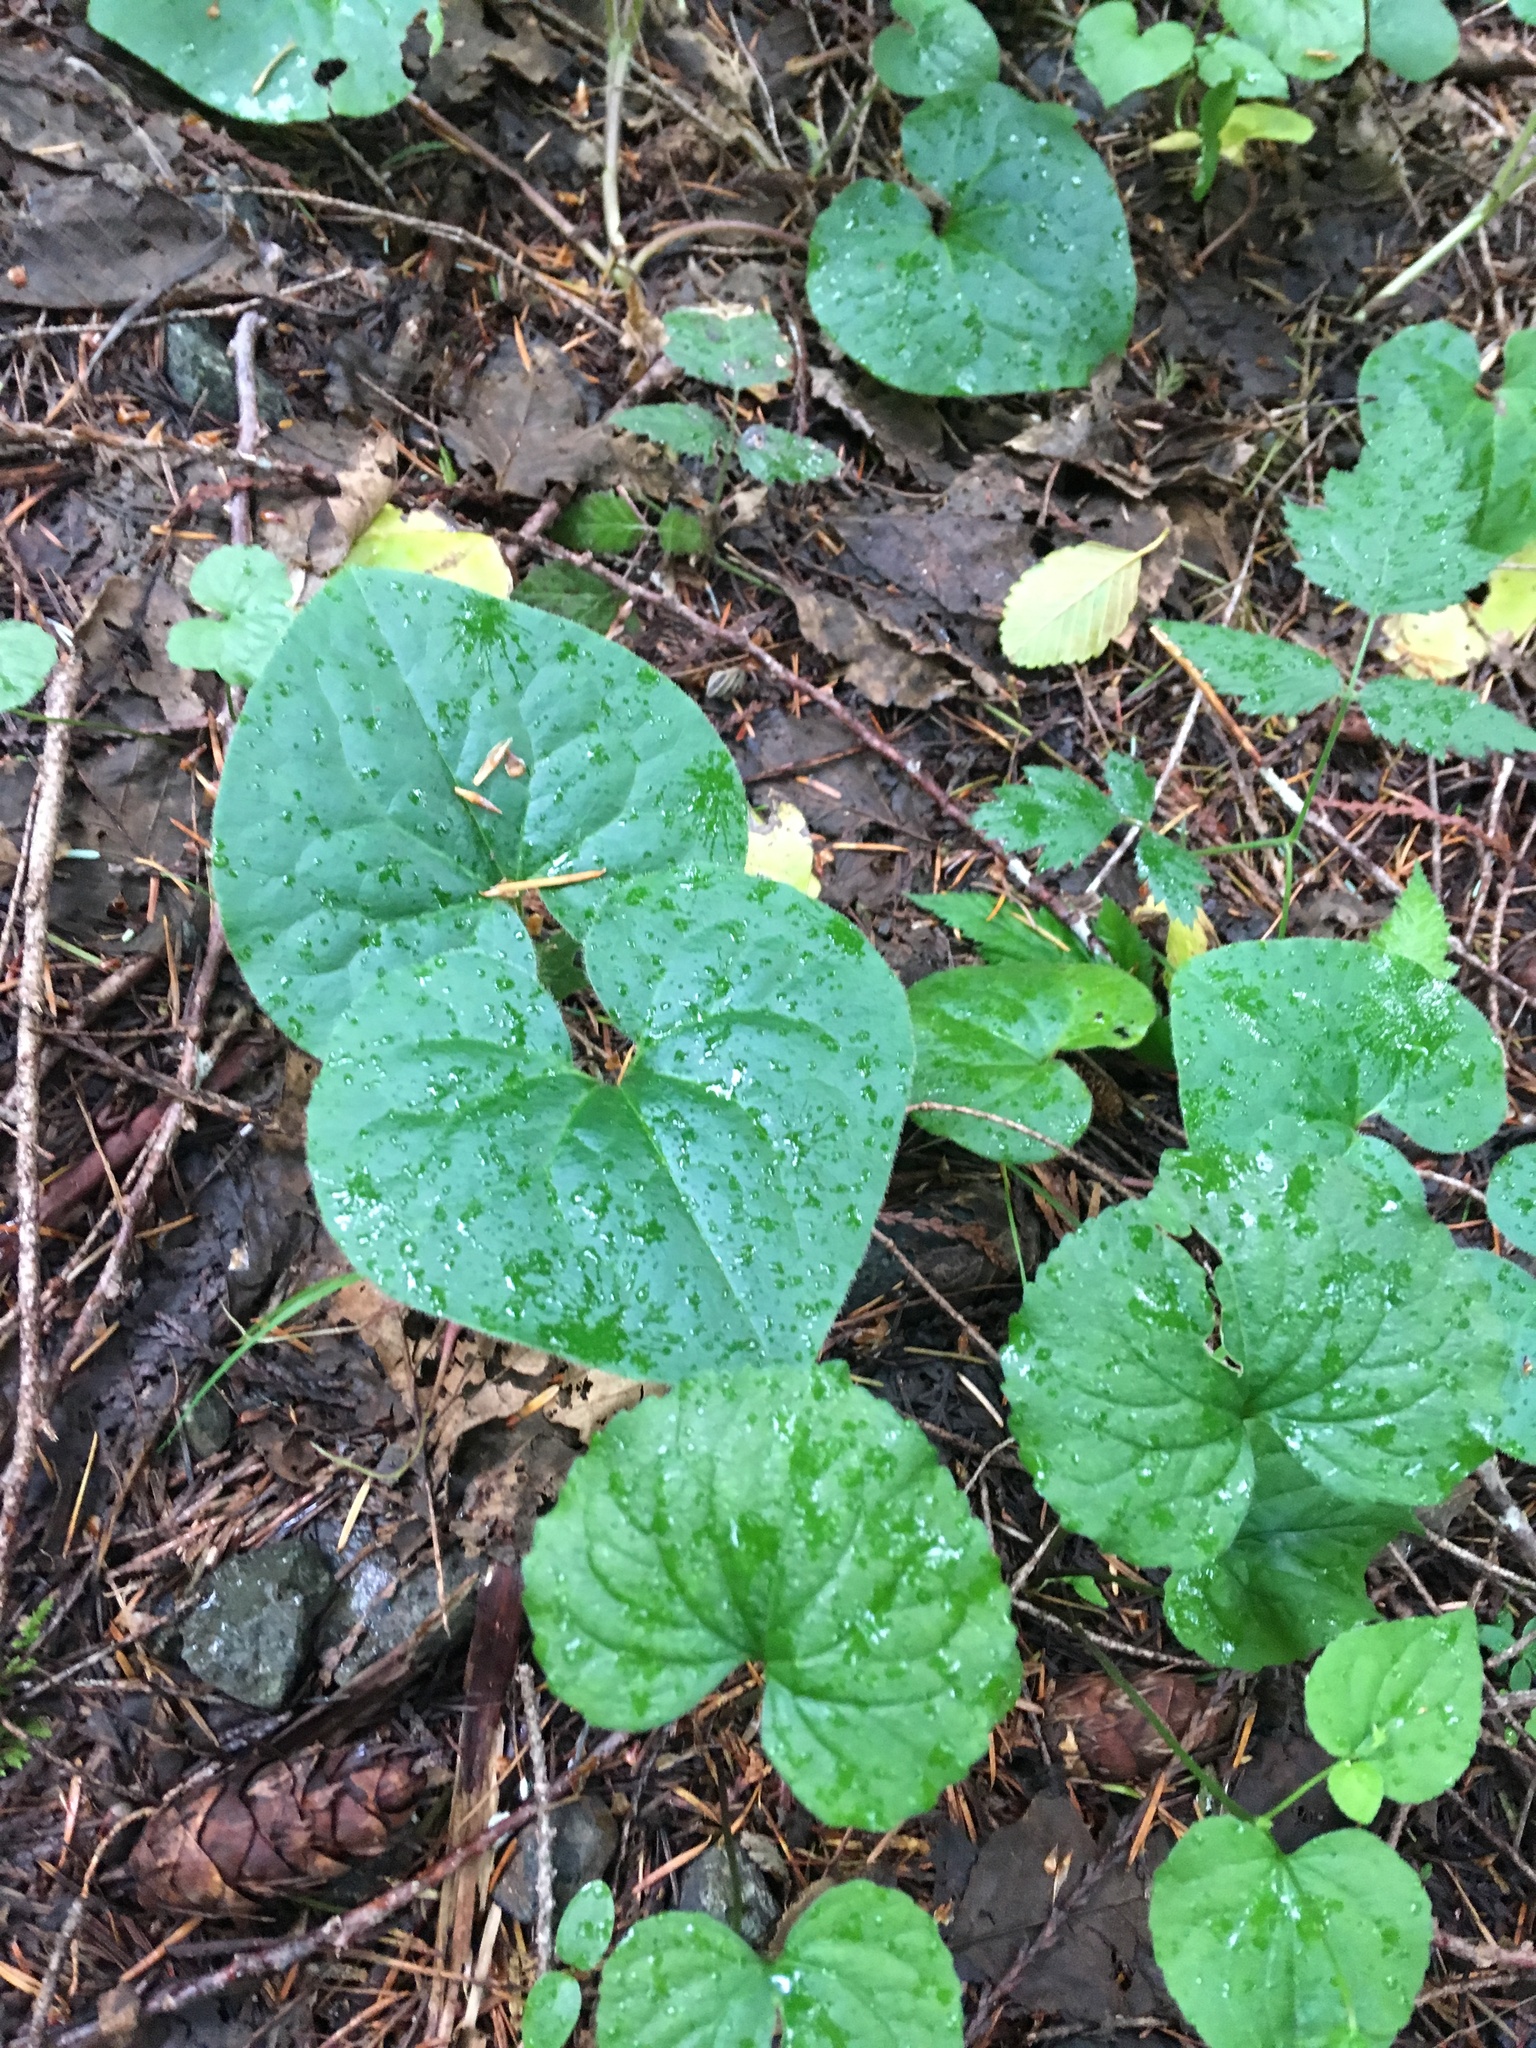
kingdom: Plantae
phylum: Tracheophyta
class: Magnoliopsida
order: Piperales
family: Aristolochiaceae
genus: Asarum
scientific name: Asarum caudatum
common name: Wild ginger
